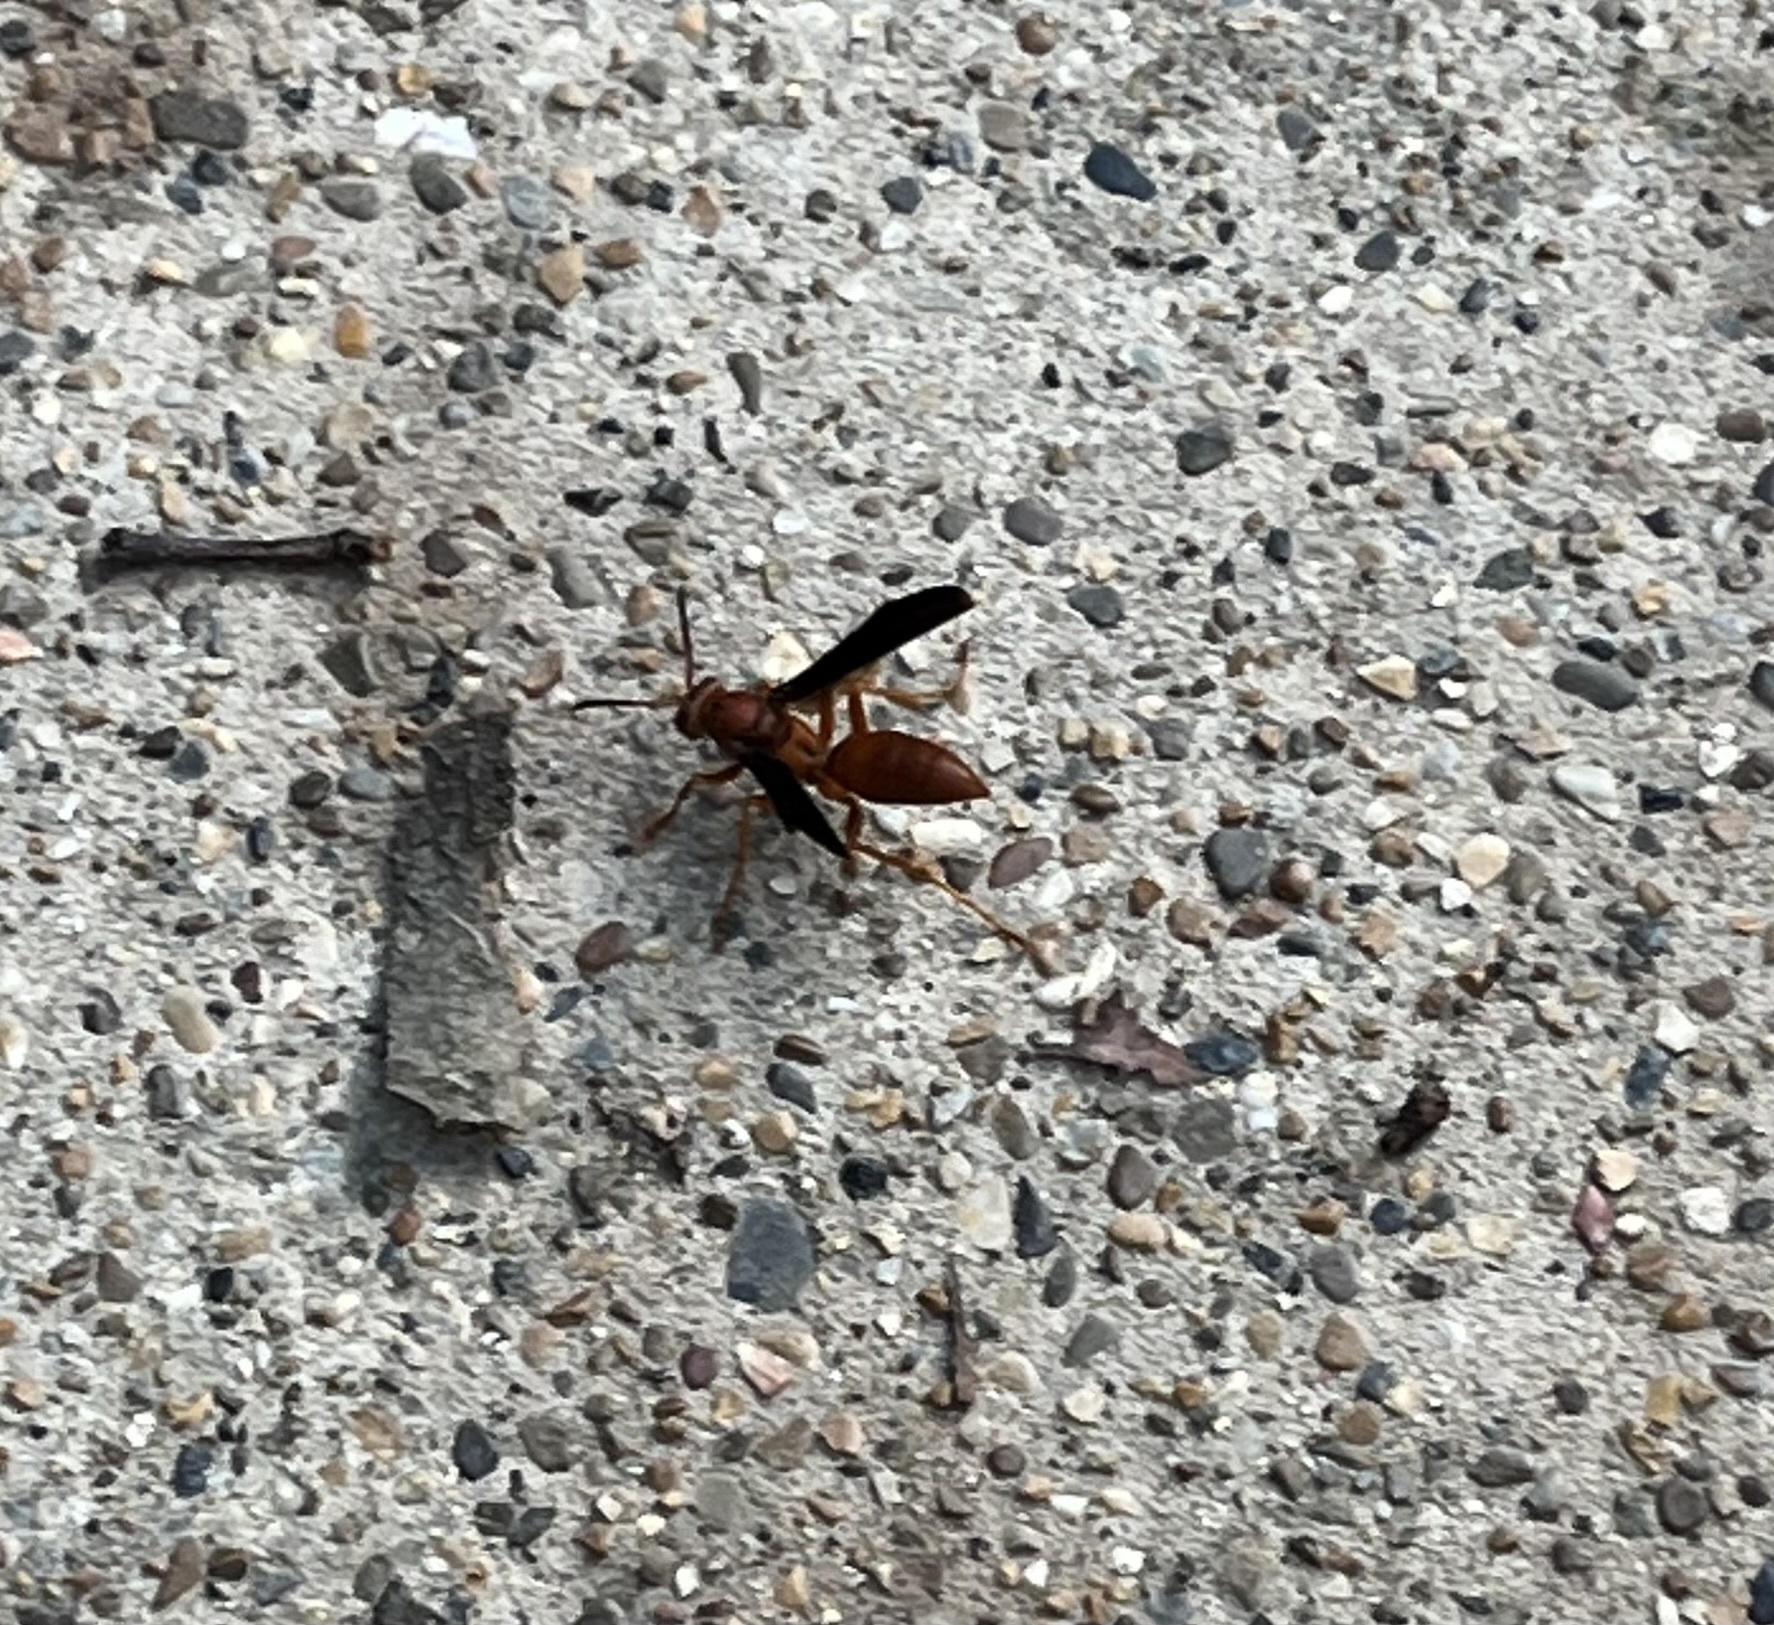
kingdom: Animalia
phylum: Arthropoda
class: Insecta
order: Hymenoptera
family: Vespidae
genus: Fuscopolistes
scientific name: Fuscopolistes
